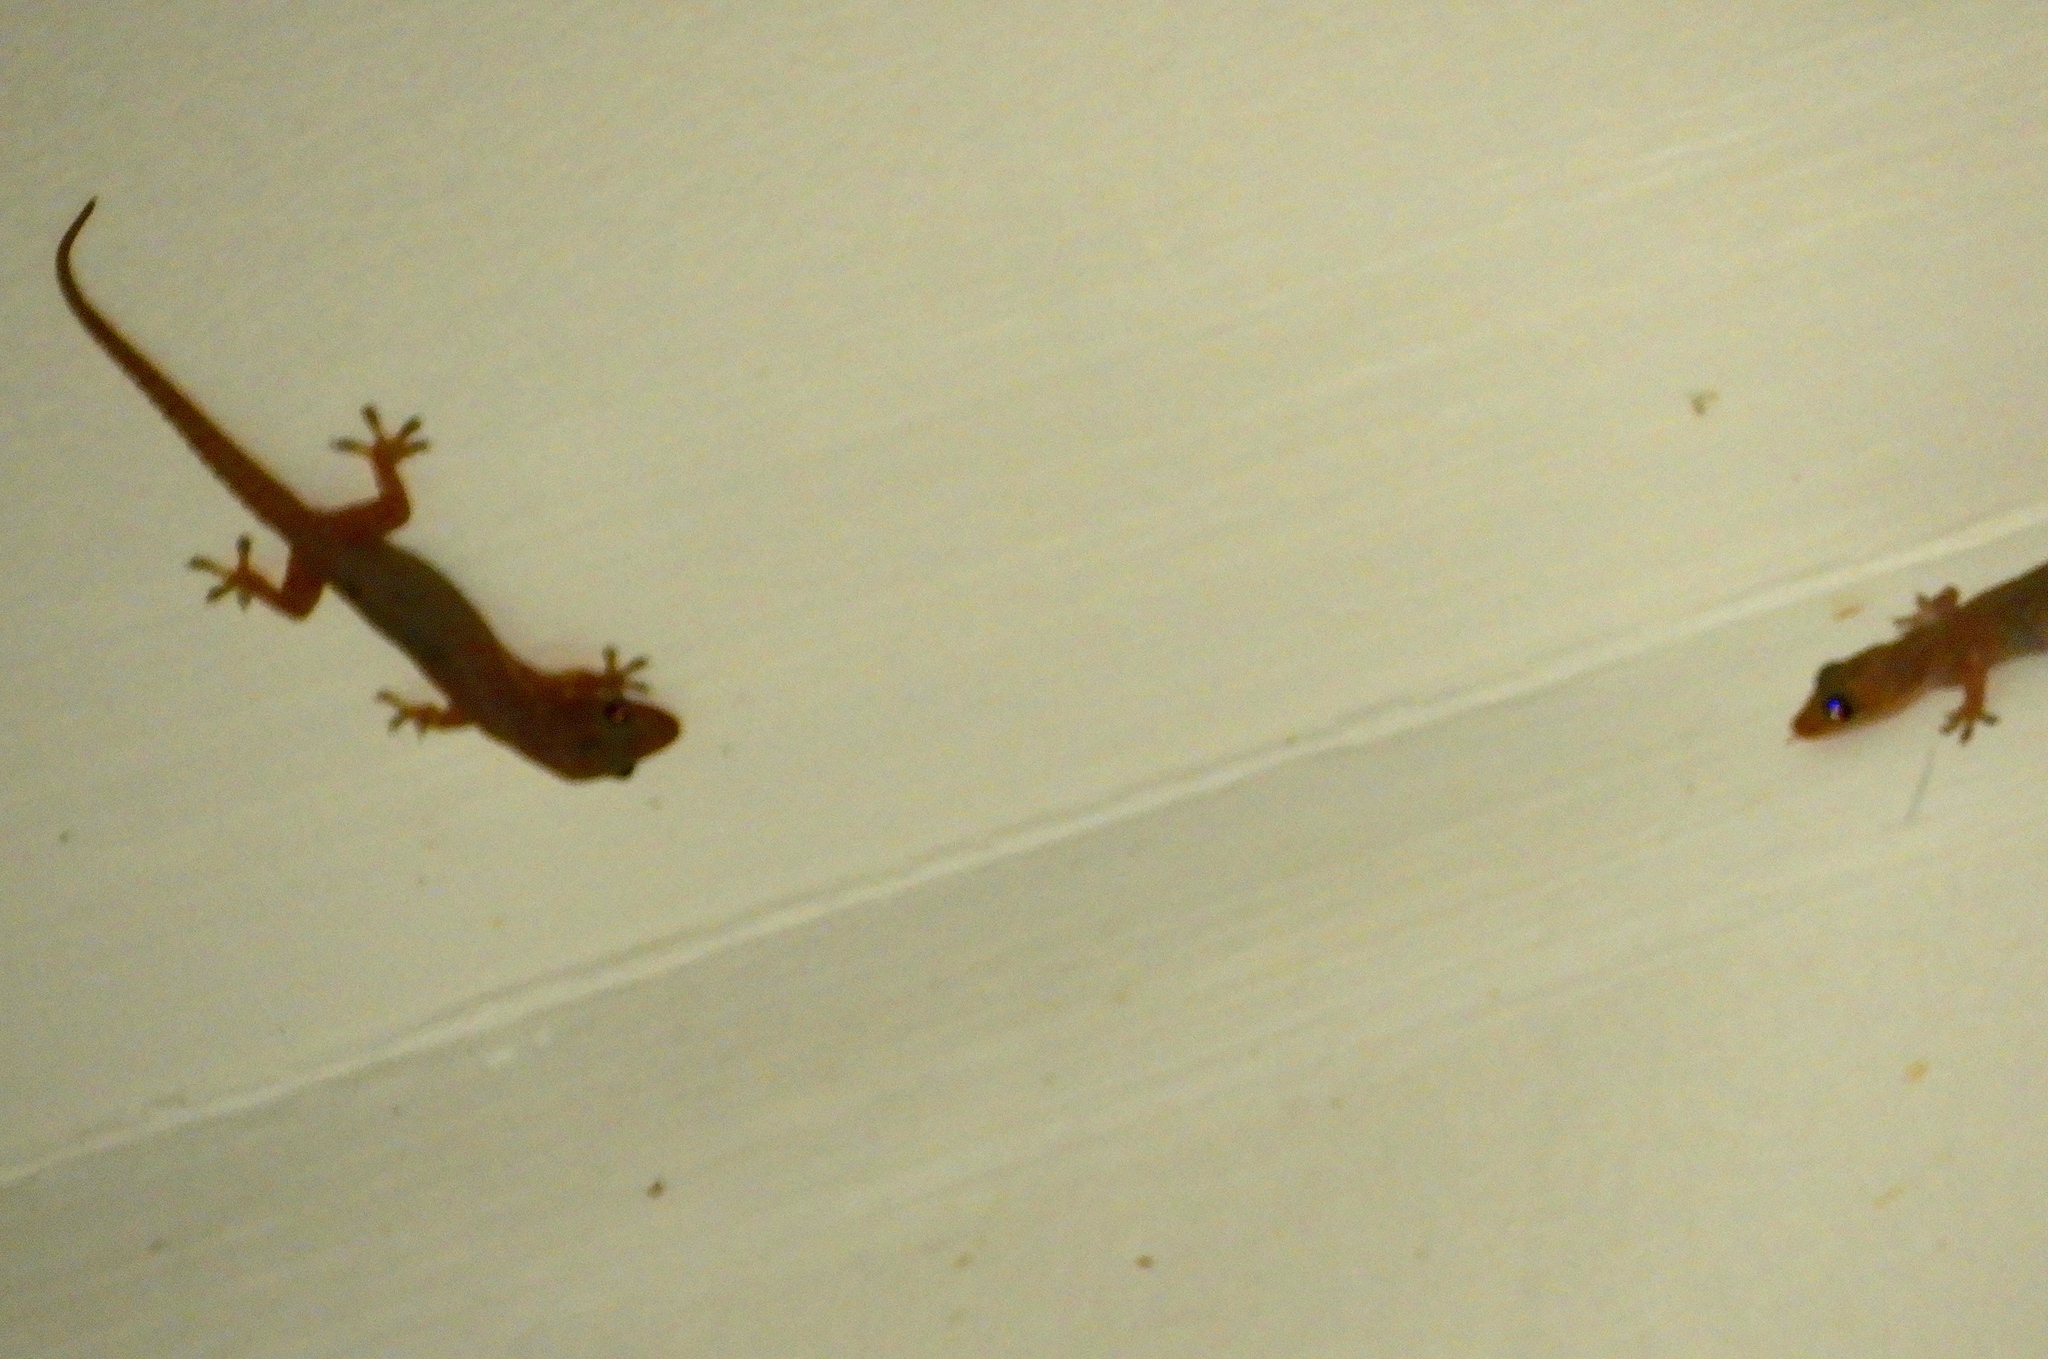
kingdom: Animalia
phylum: Chordata
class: Squamata
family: Gekkonidae
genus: Hemidactylus
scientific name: Hemidactylus frenatus
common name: Common house gecko
